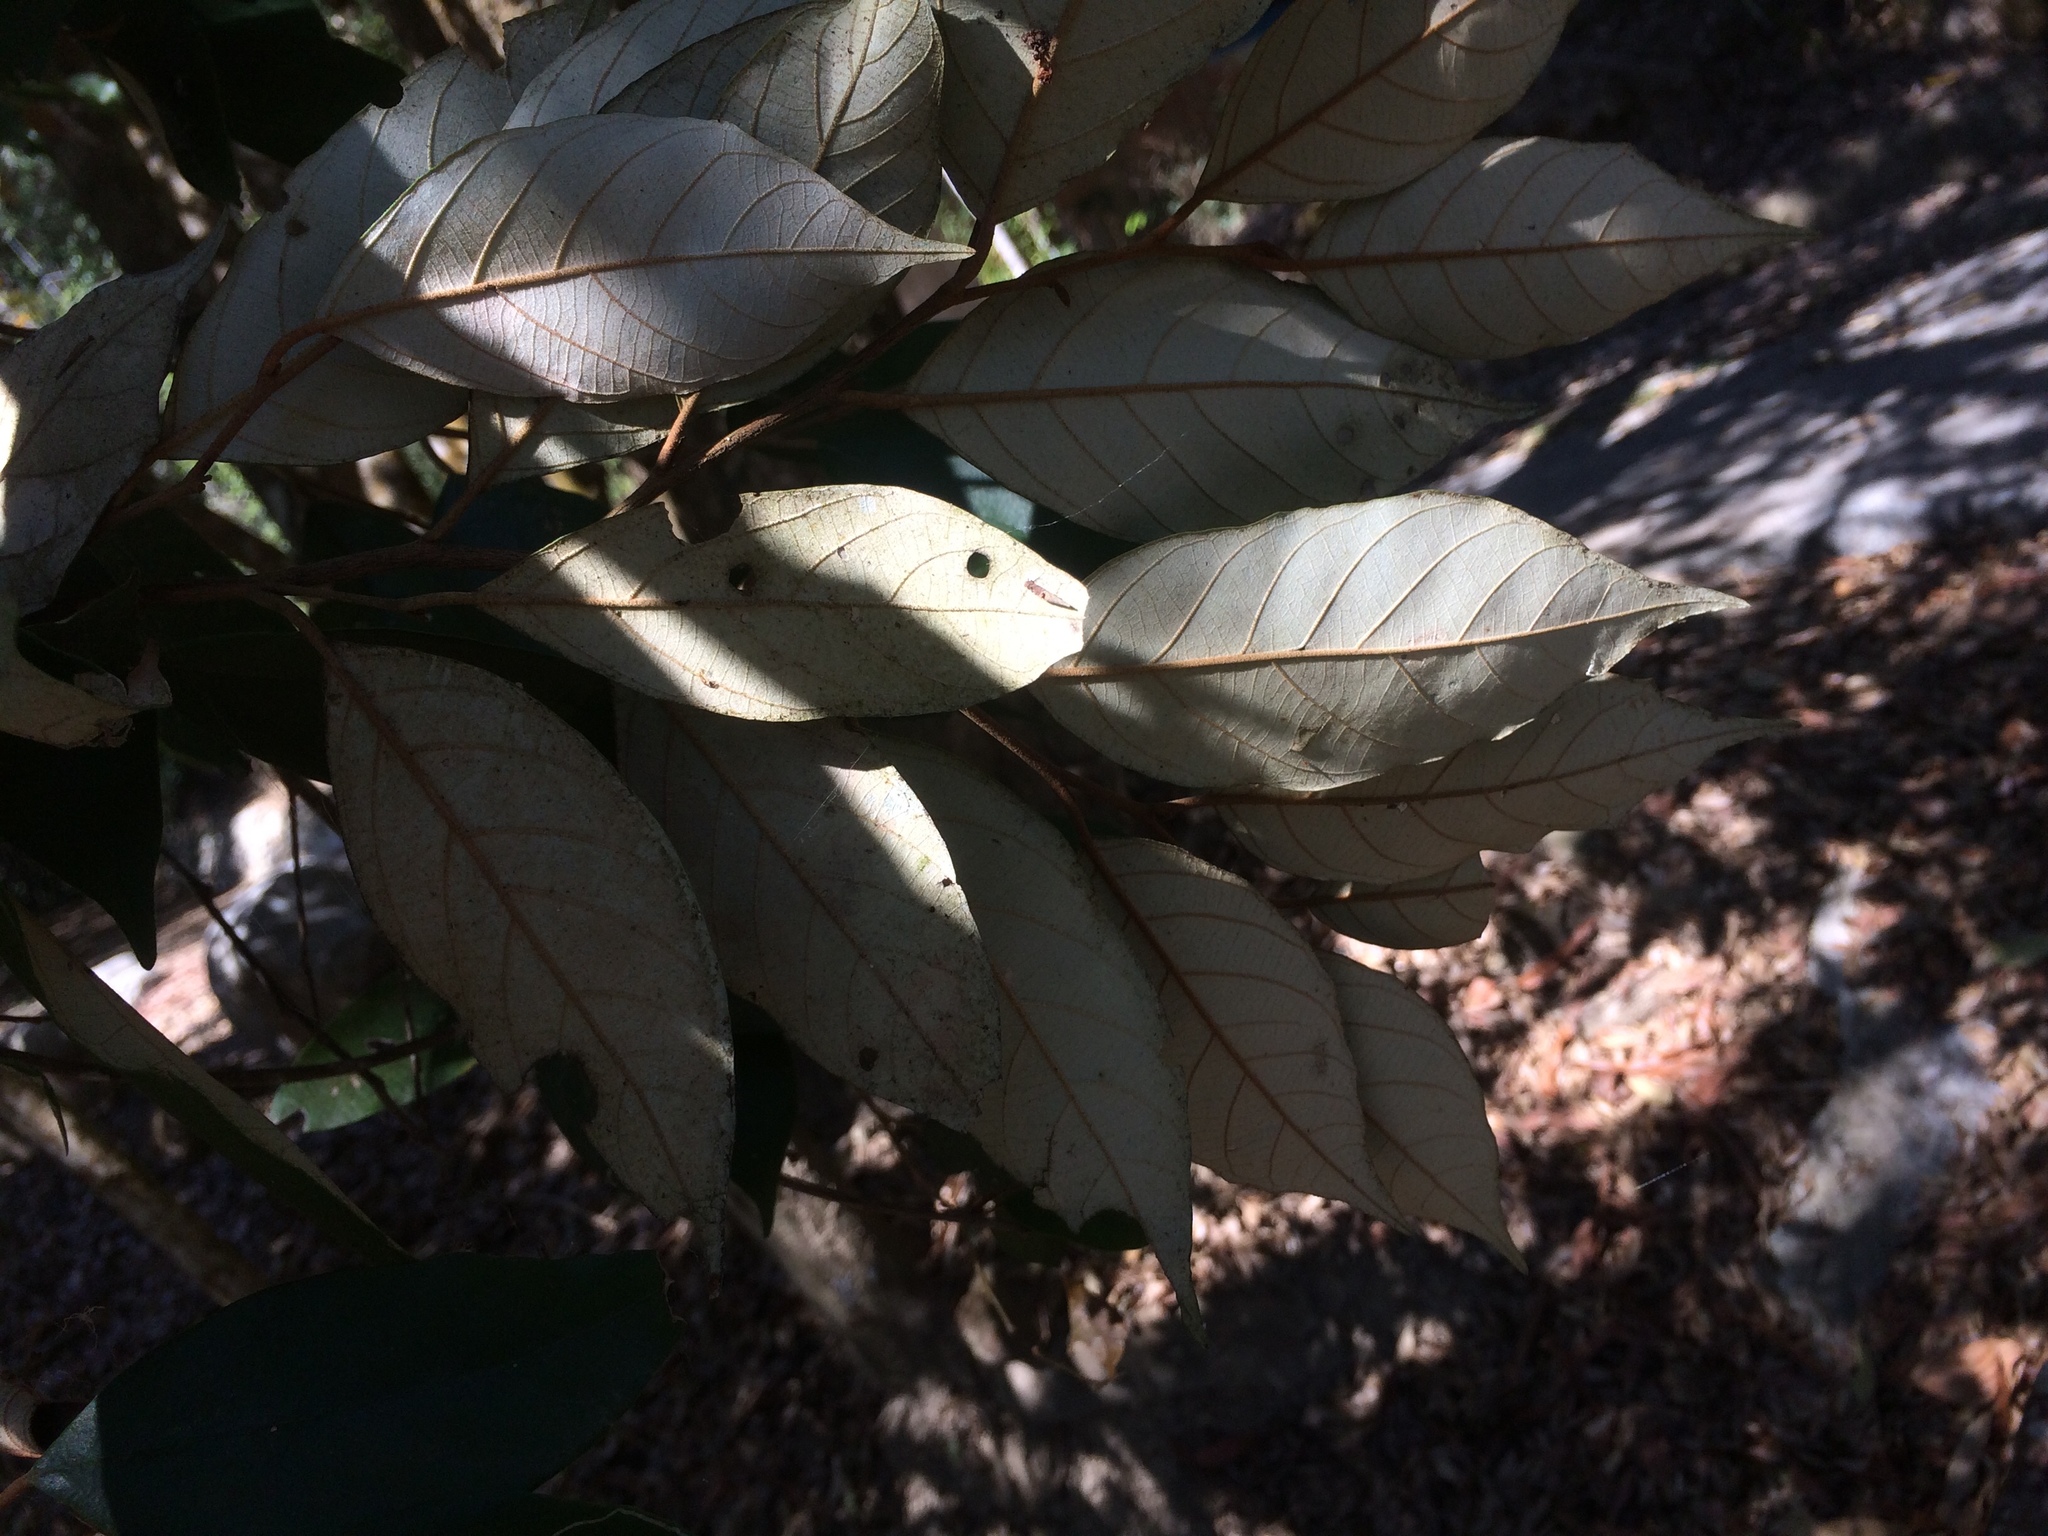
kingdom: Plantae
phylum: Tracheophyta
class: Magnoliopsida
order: Ericales
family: Styracaceae
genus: Styrax
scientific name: Styrax suberifolius
